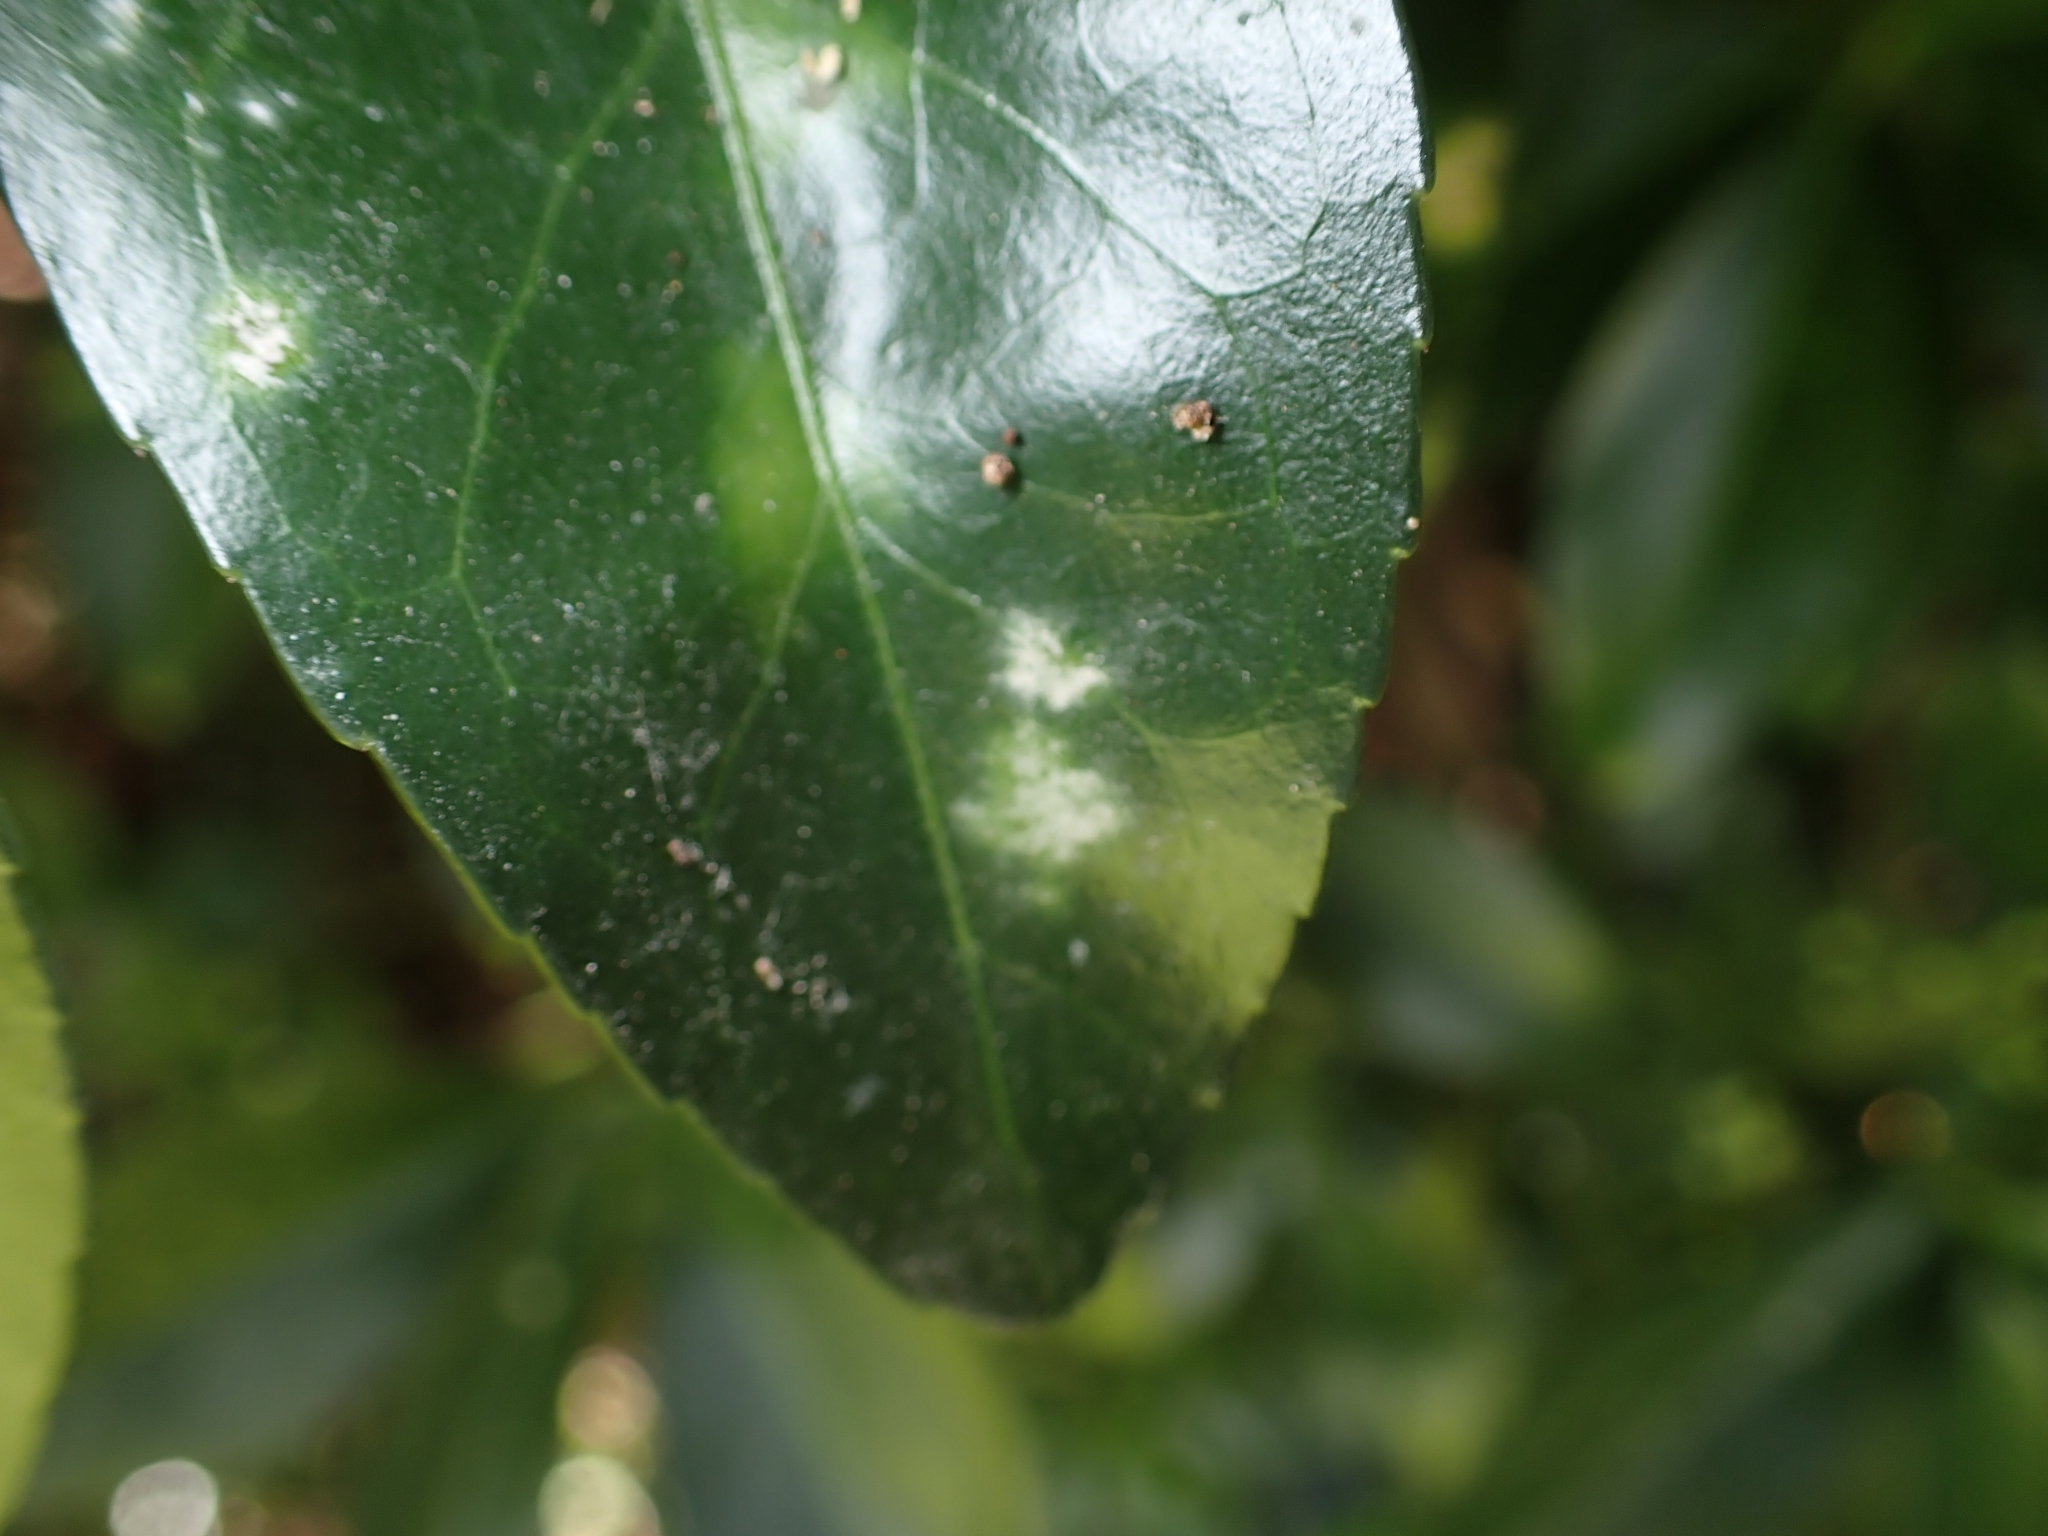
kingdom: Fungi
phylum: Ascomycota
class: Leotiomycetes
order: Helotiales
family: Erysiphaceae
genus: Erysiphe
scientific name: Erysiphe euonymicola
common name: Spindletree mildew
